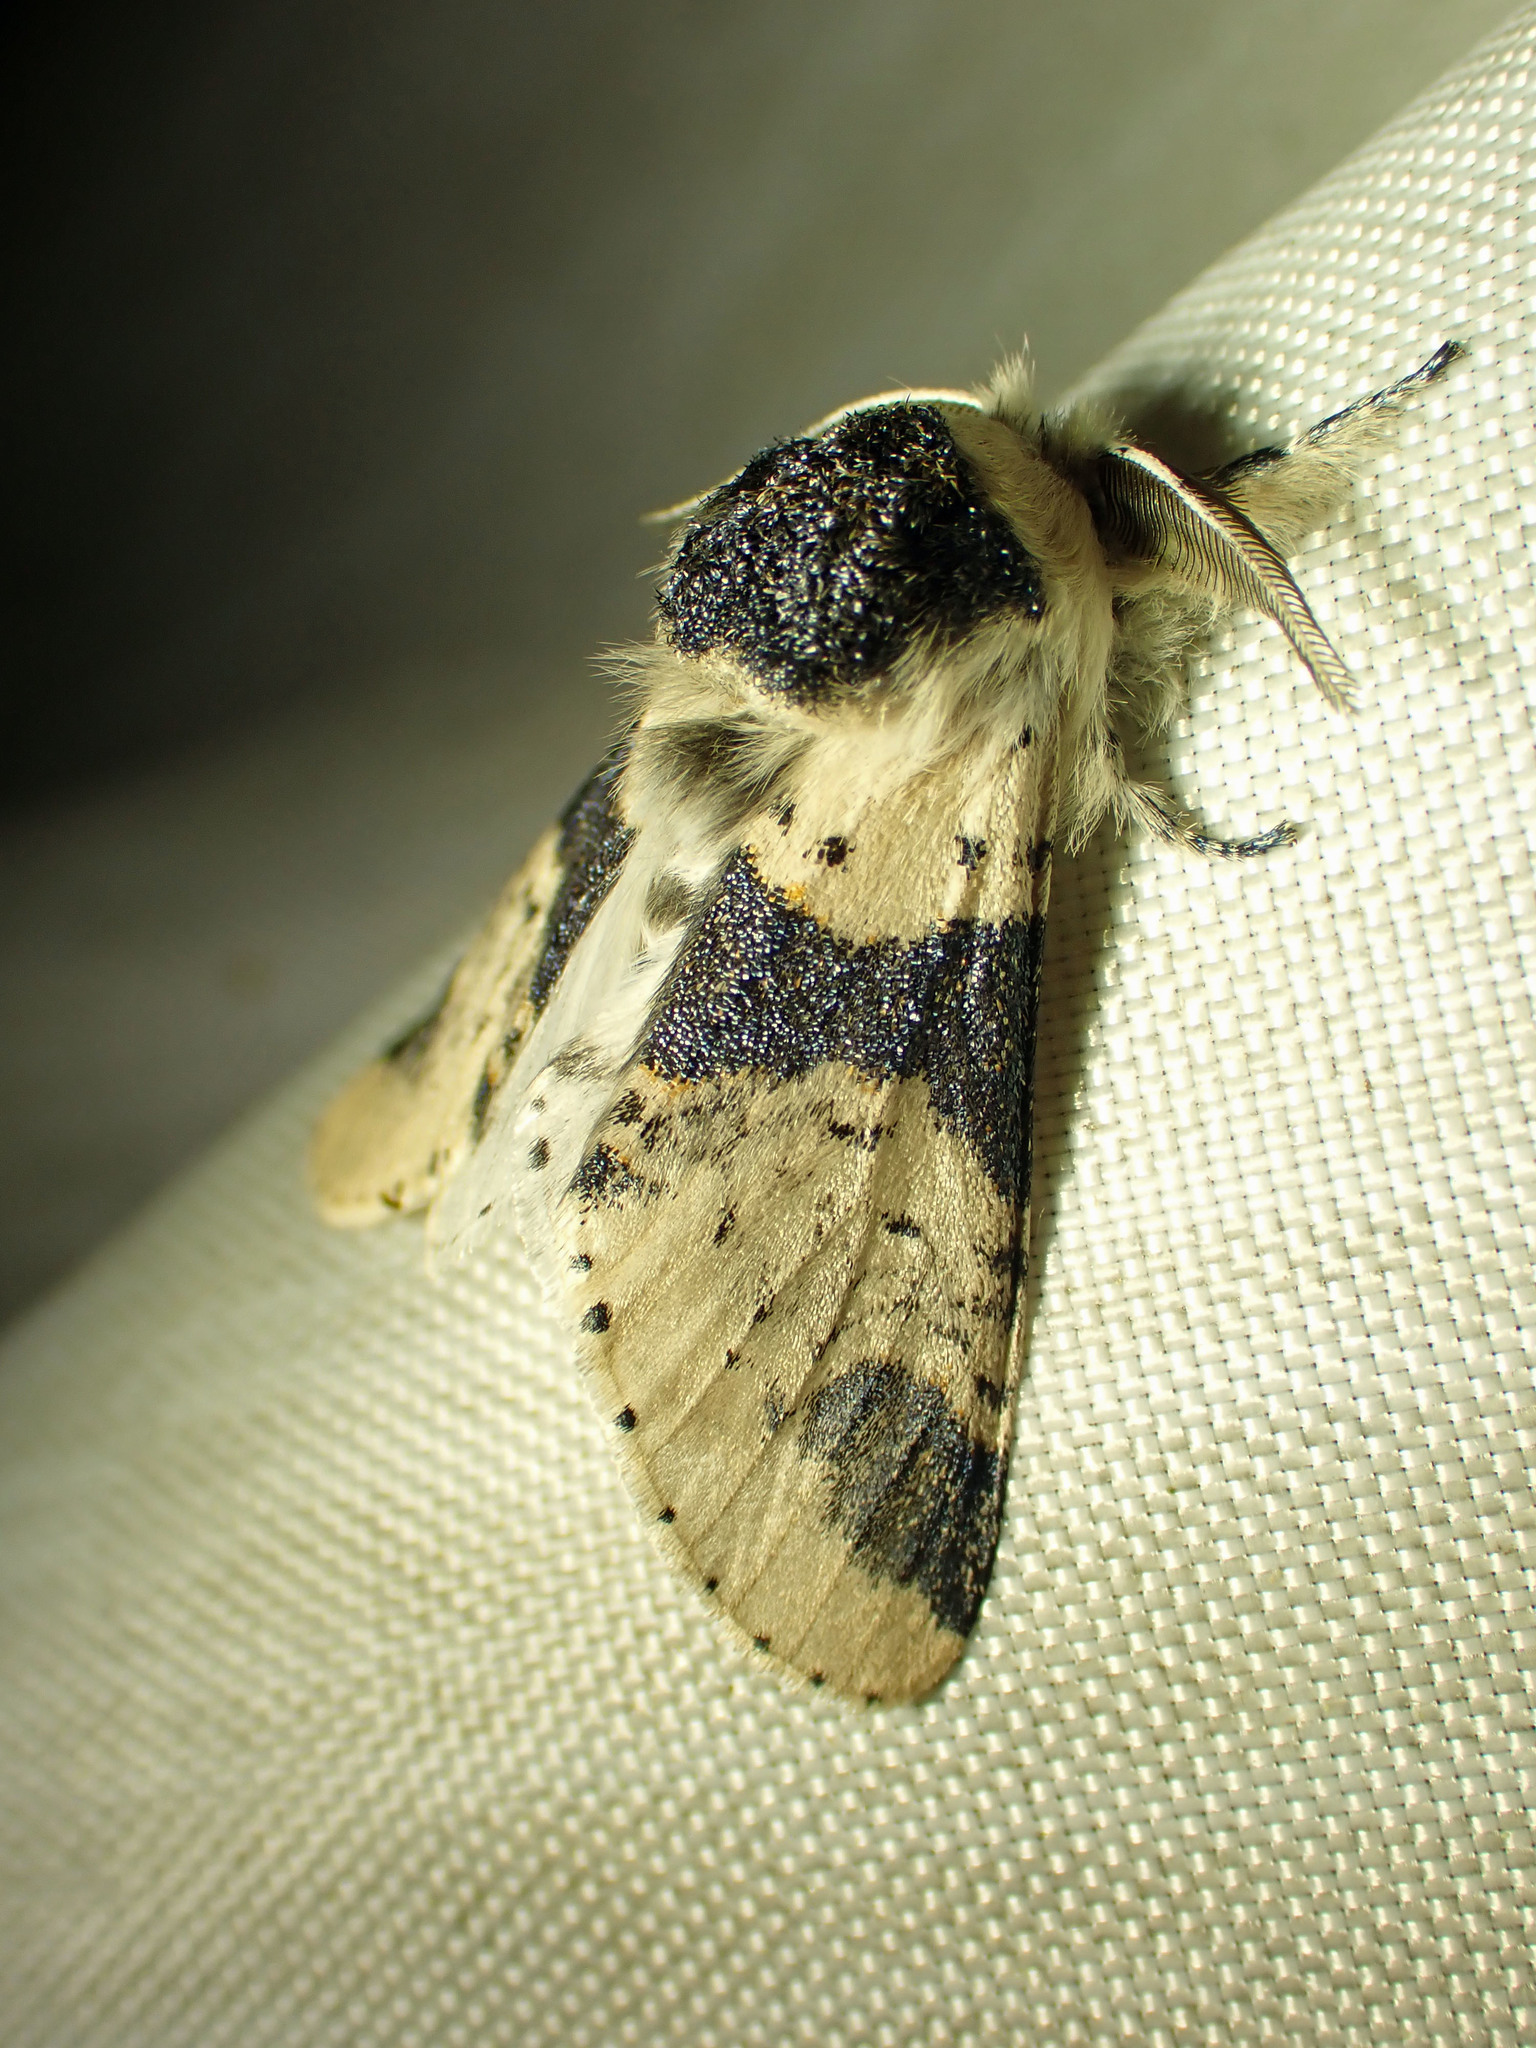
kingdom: Animalia
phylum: Arthropoda
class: Insecta
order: Lepidoptera
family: Notodontidae
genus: Furcula
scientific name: Furcula modesta
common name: Modest furcula moth
